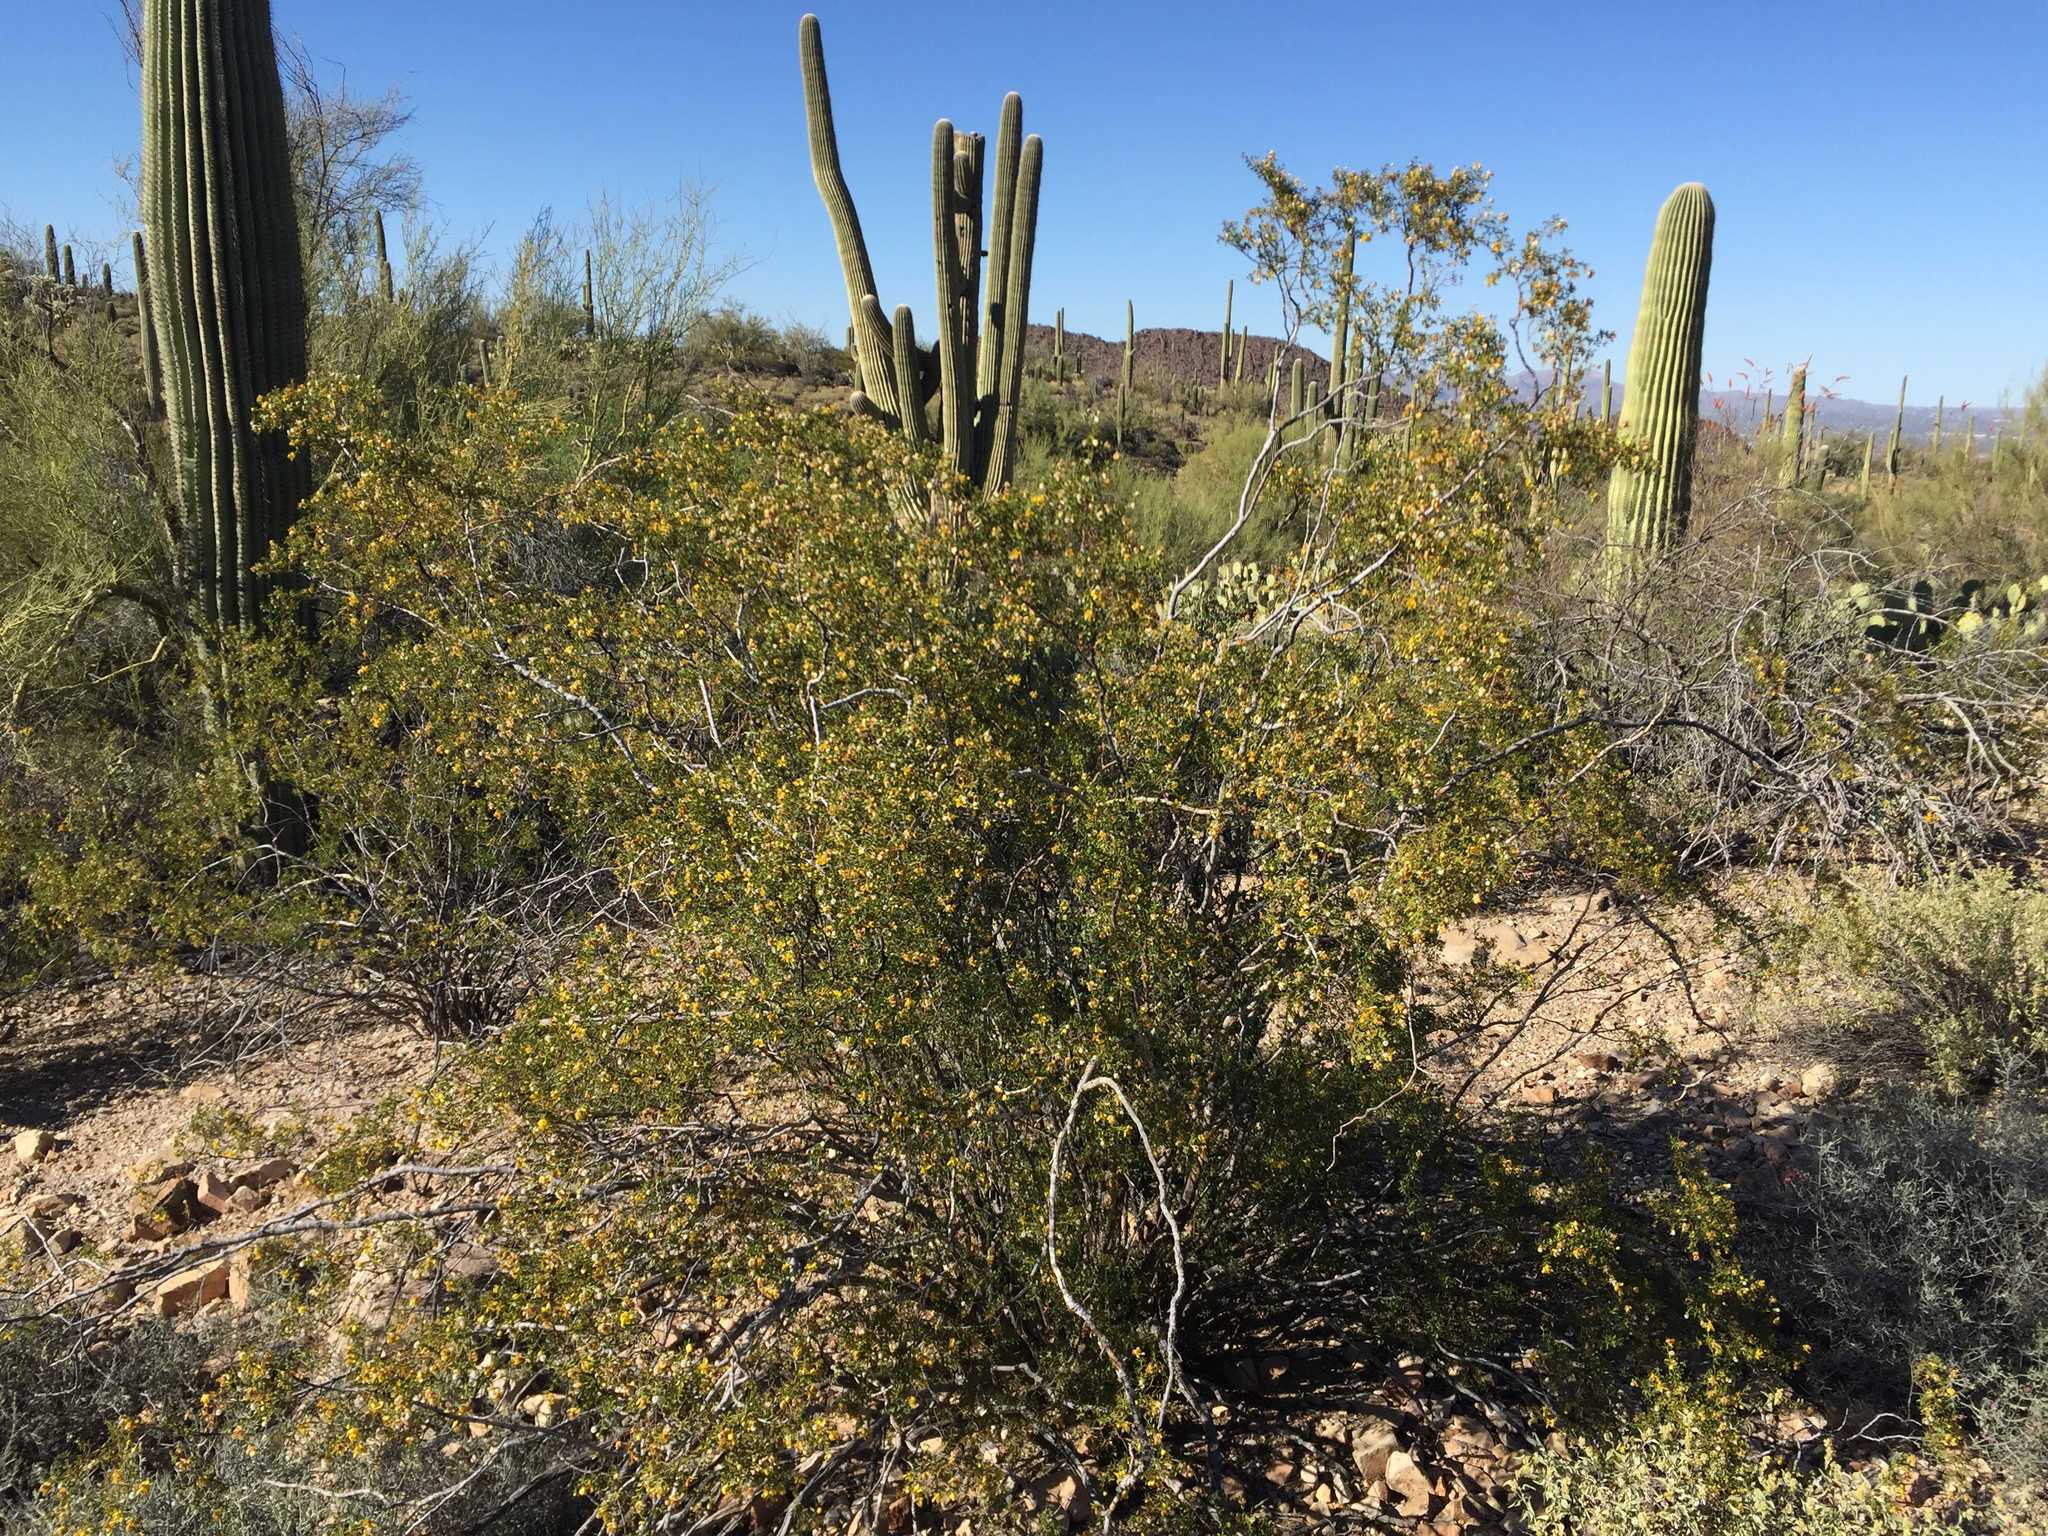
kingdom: Plantae
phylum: Tracheophyta
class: Magnoliopsida
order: Zygophyllales
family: Zygophyllaceae
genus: Larrea
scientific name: Larrea tridentata
